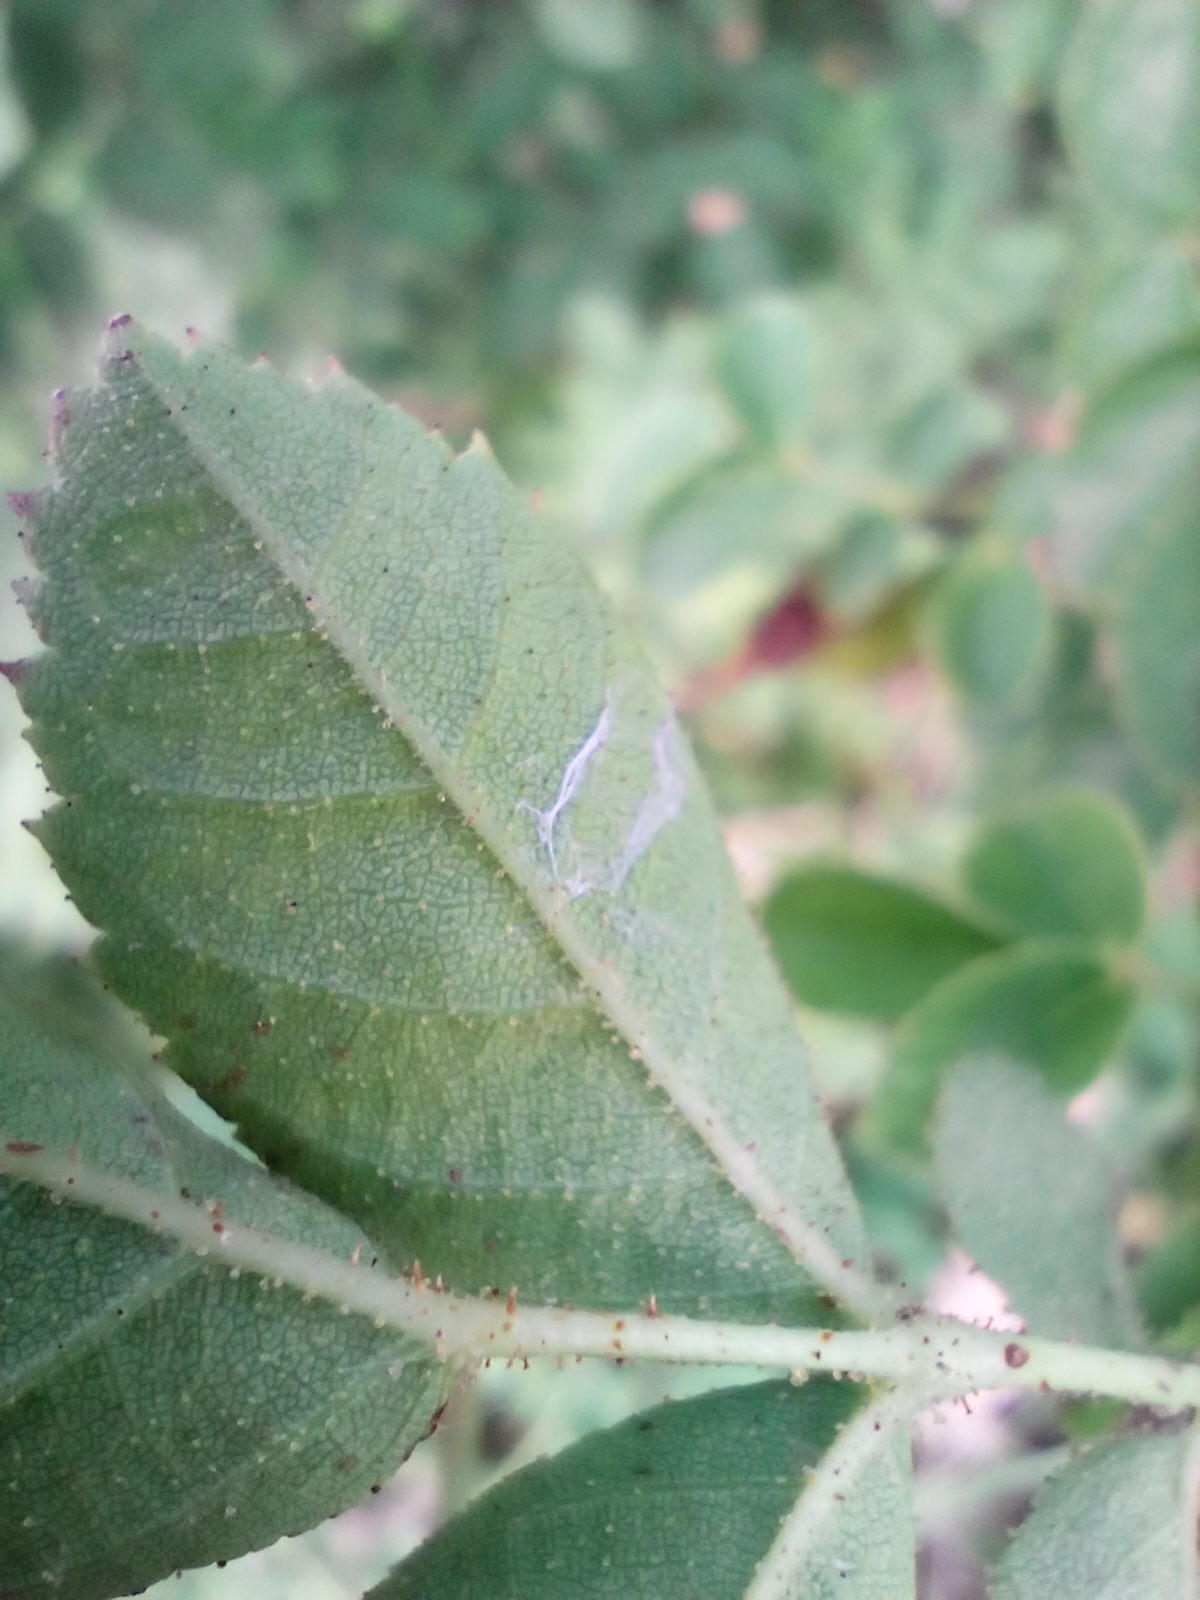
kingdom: Plantae
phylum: Tracheophyta
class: Magnoliopsida
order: Rosales
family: Rosaceae
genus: Rosa
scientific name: Rosa rubiginosa
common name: Sweet-briar
